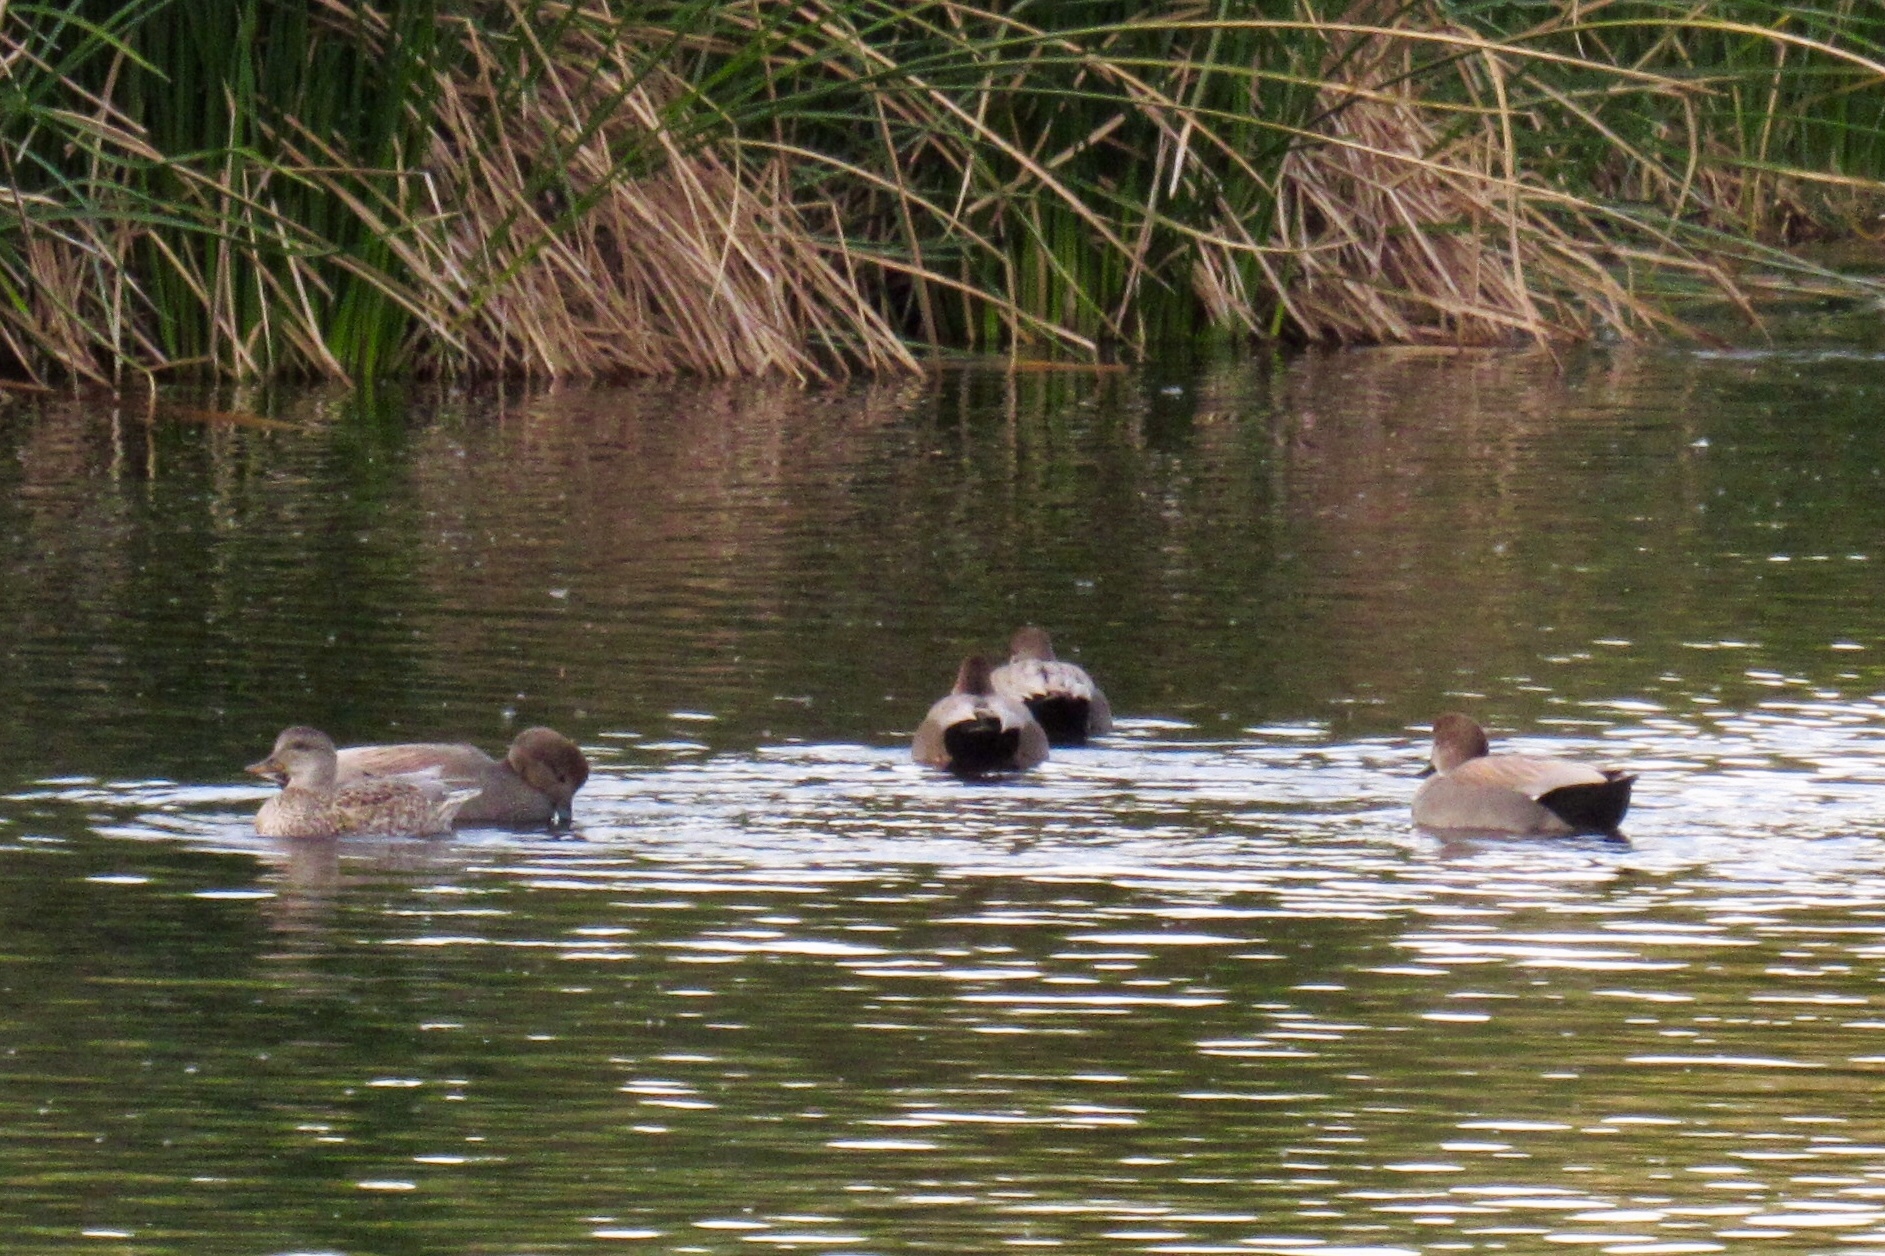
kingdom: Animalia
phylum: Chordata
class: Aves
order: Anseriformes
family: Anatidae
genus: Mareca
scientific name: Mareca strepera
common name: Gadwall
